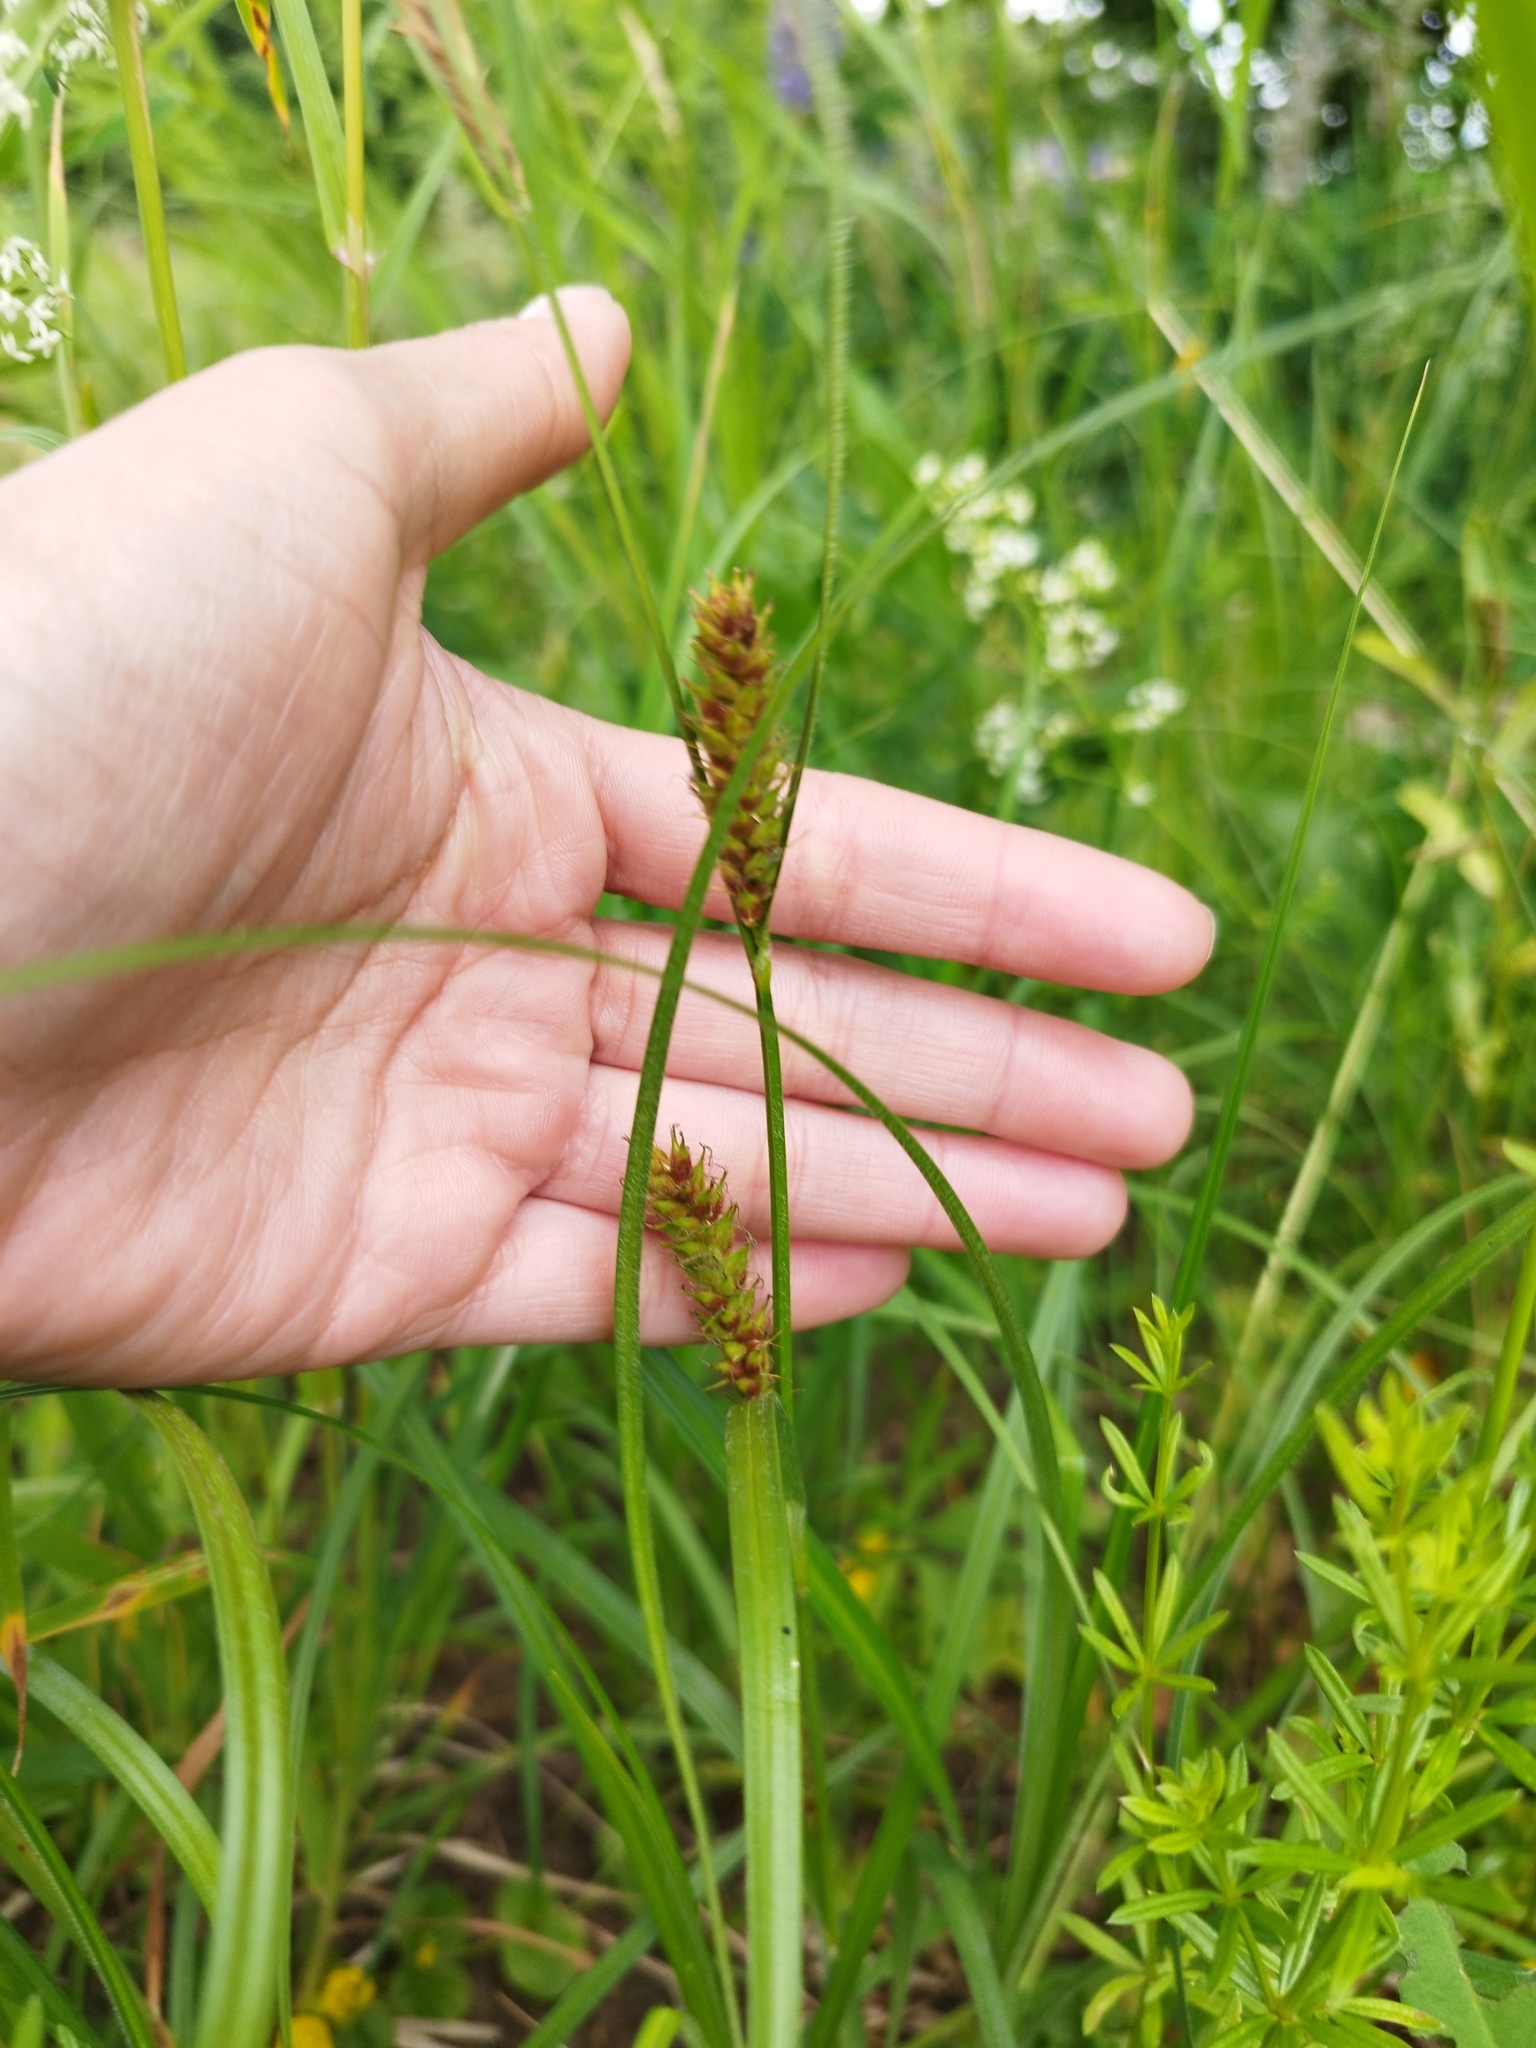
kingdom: Plantae
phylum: Tracheophyta
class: Liliopsida
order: Poales
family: Cyperaceae
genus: Carex
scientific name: Carex hirta
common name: Hairy sedge
